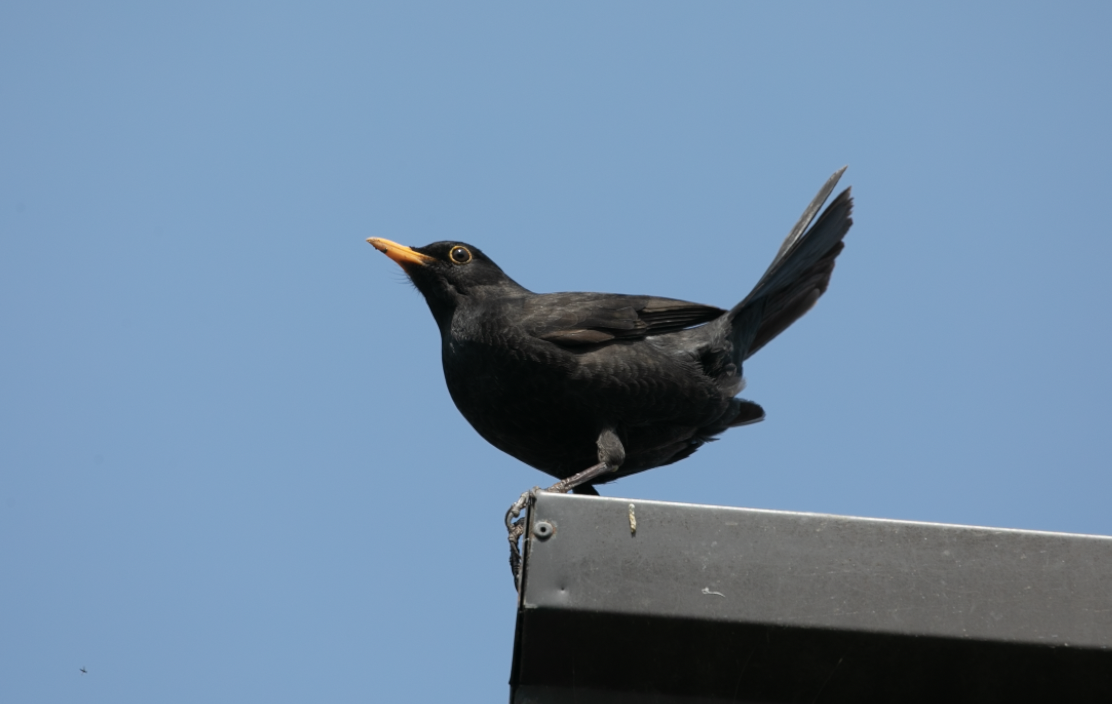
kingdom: Animalia
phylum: Chordata
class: Aves
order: Passeriformes
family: Turdidae
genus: Turdus
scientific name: Turdus merula
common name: Common blackbird
